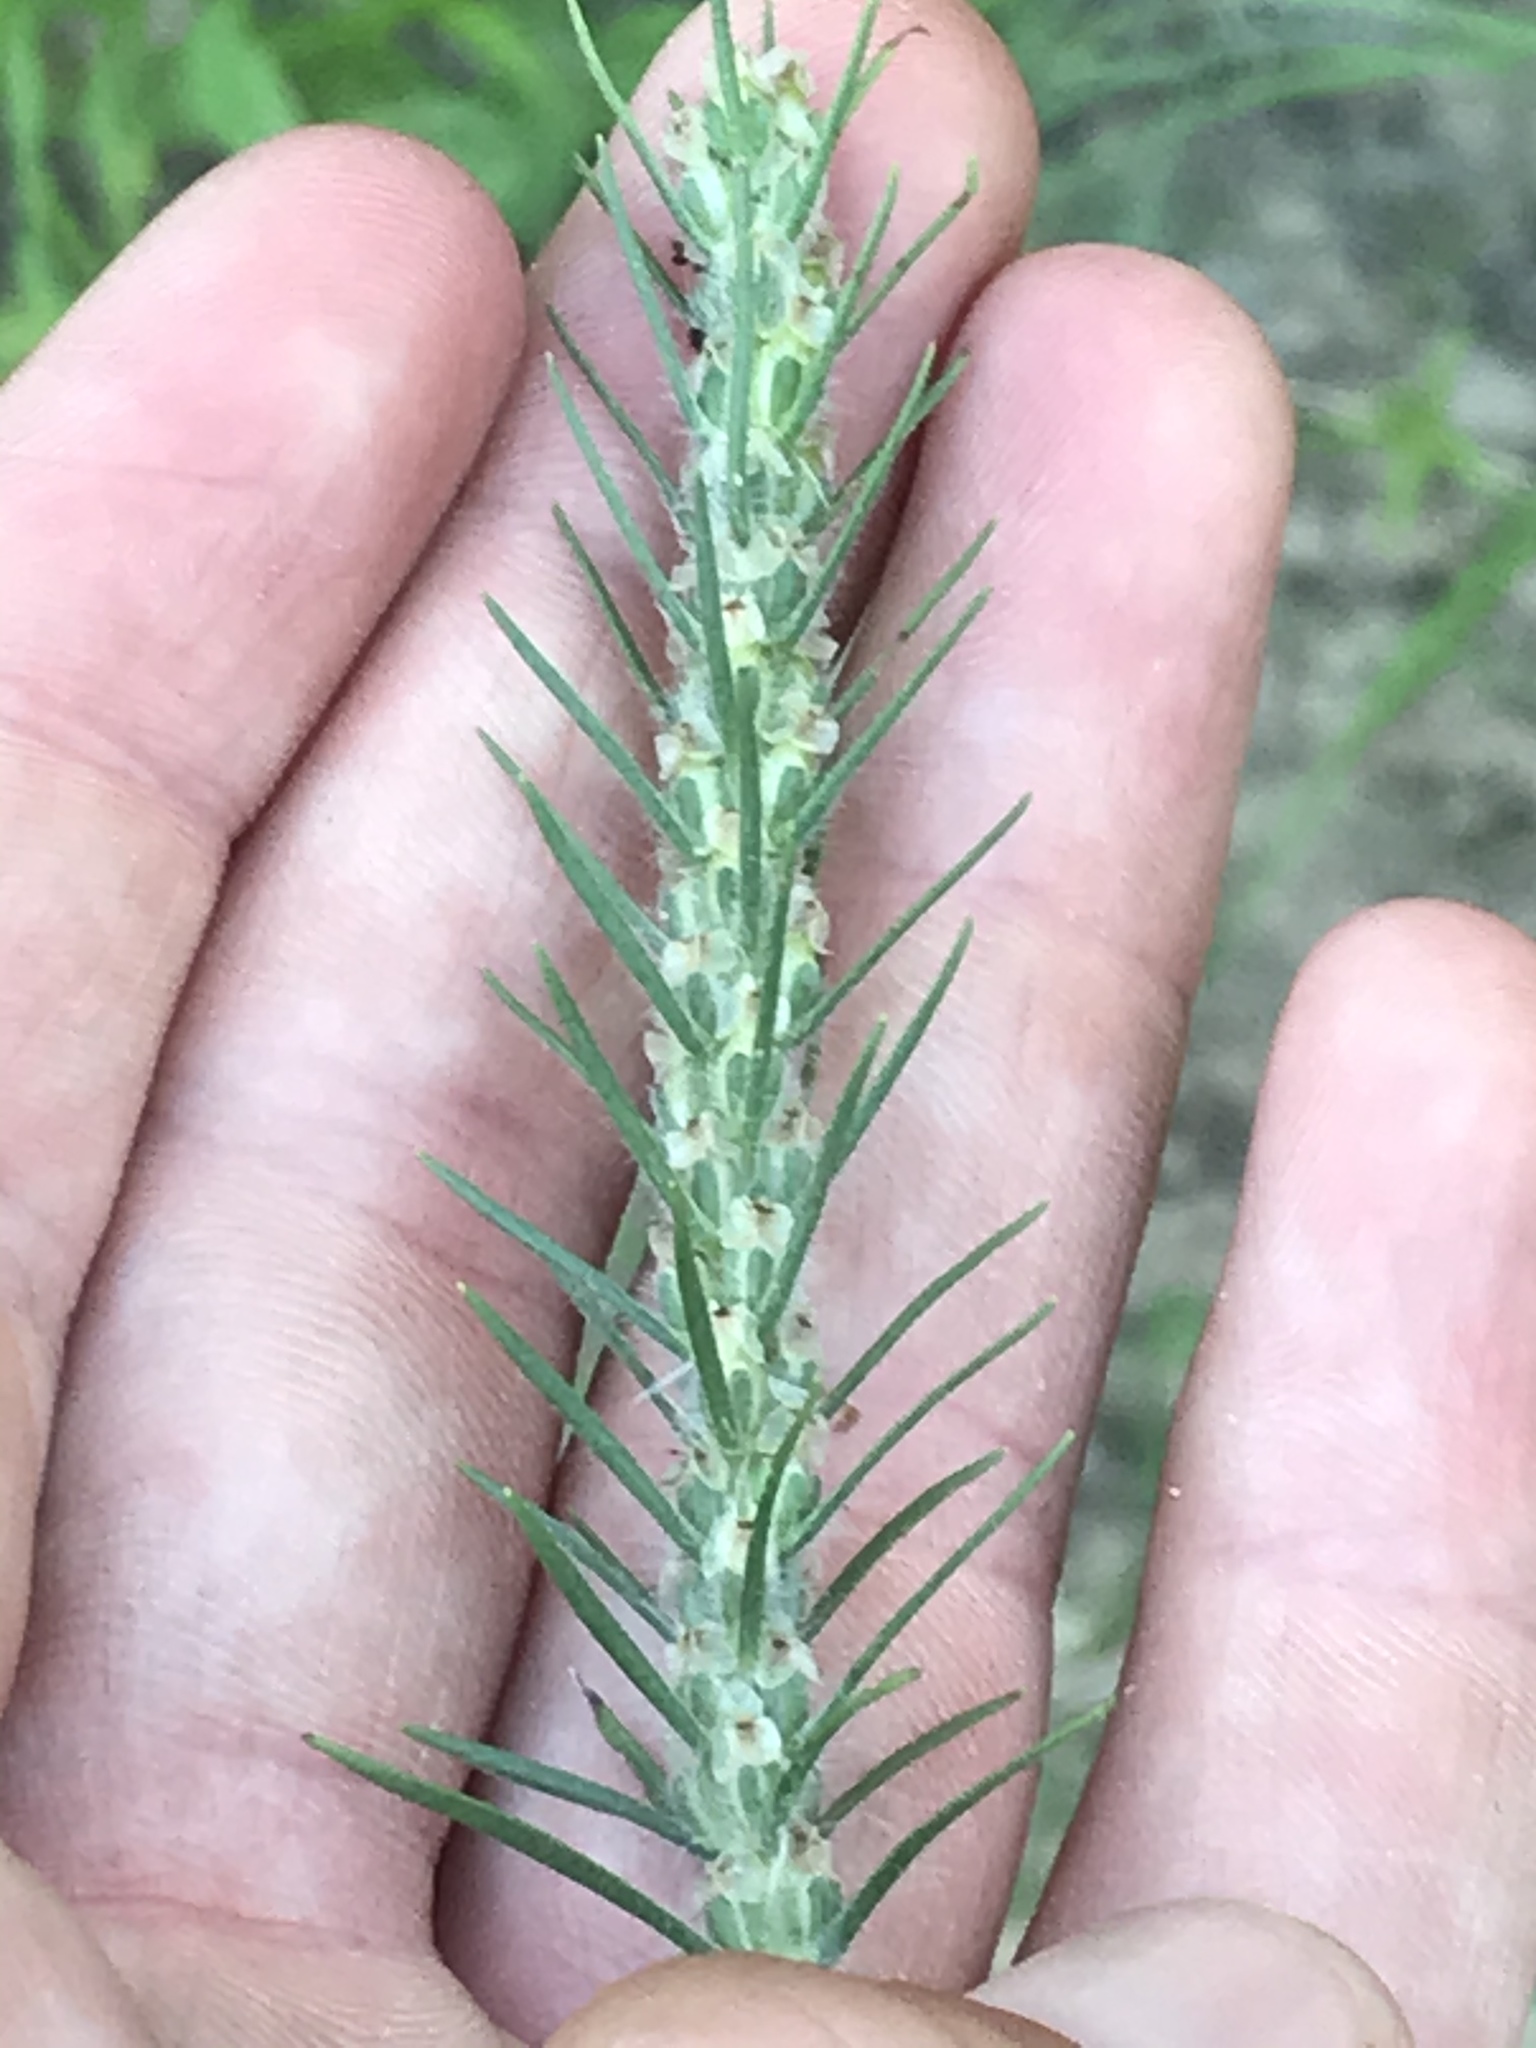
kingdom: Plantae
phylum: Tracheophyta
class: Magnoliopsida
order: Lamiales
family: Plantaginaceae
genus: Plantago
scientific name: Plantago aristata
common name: Bracted plantain
